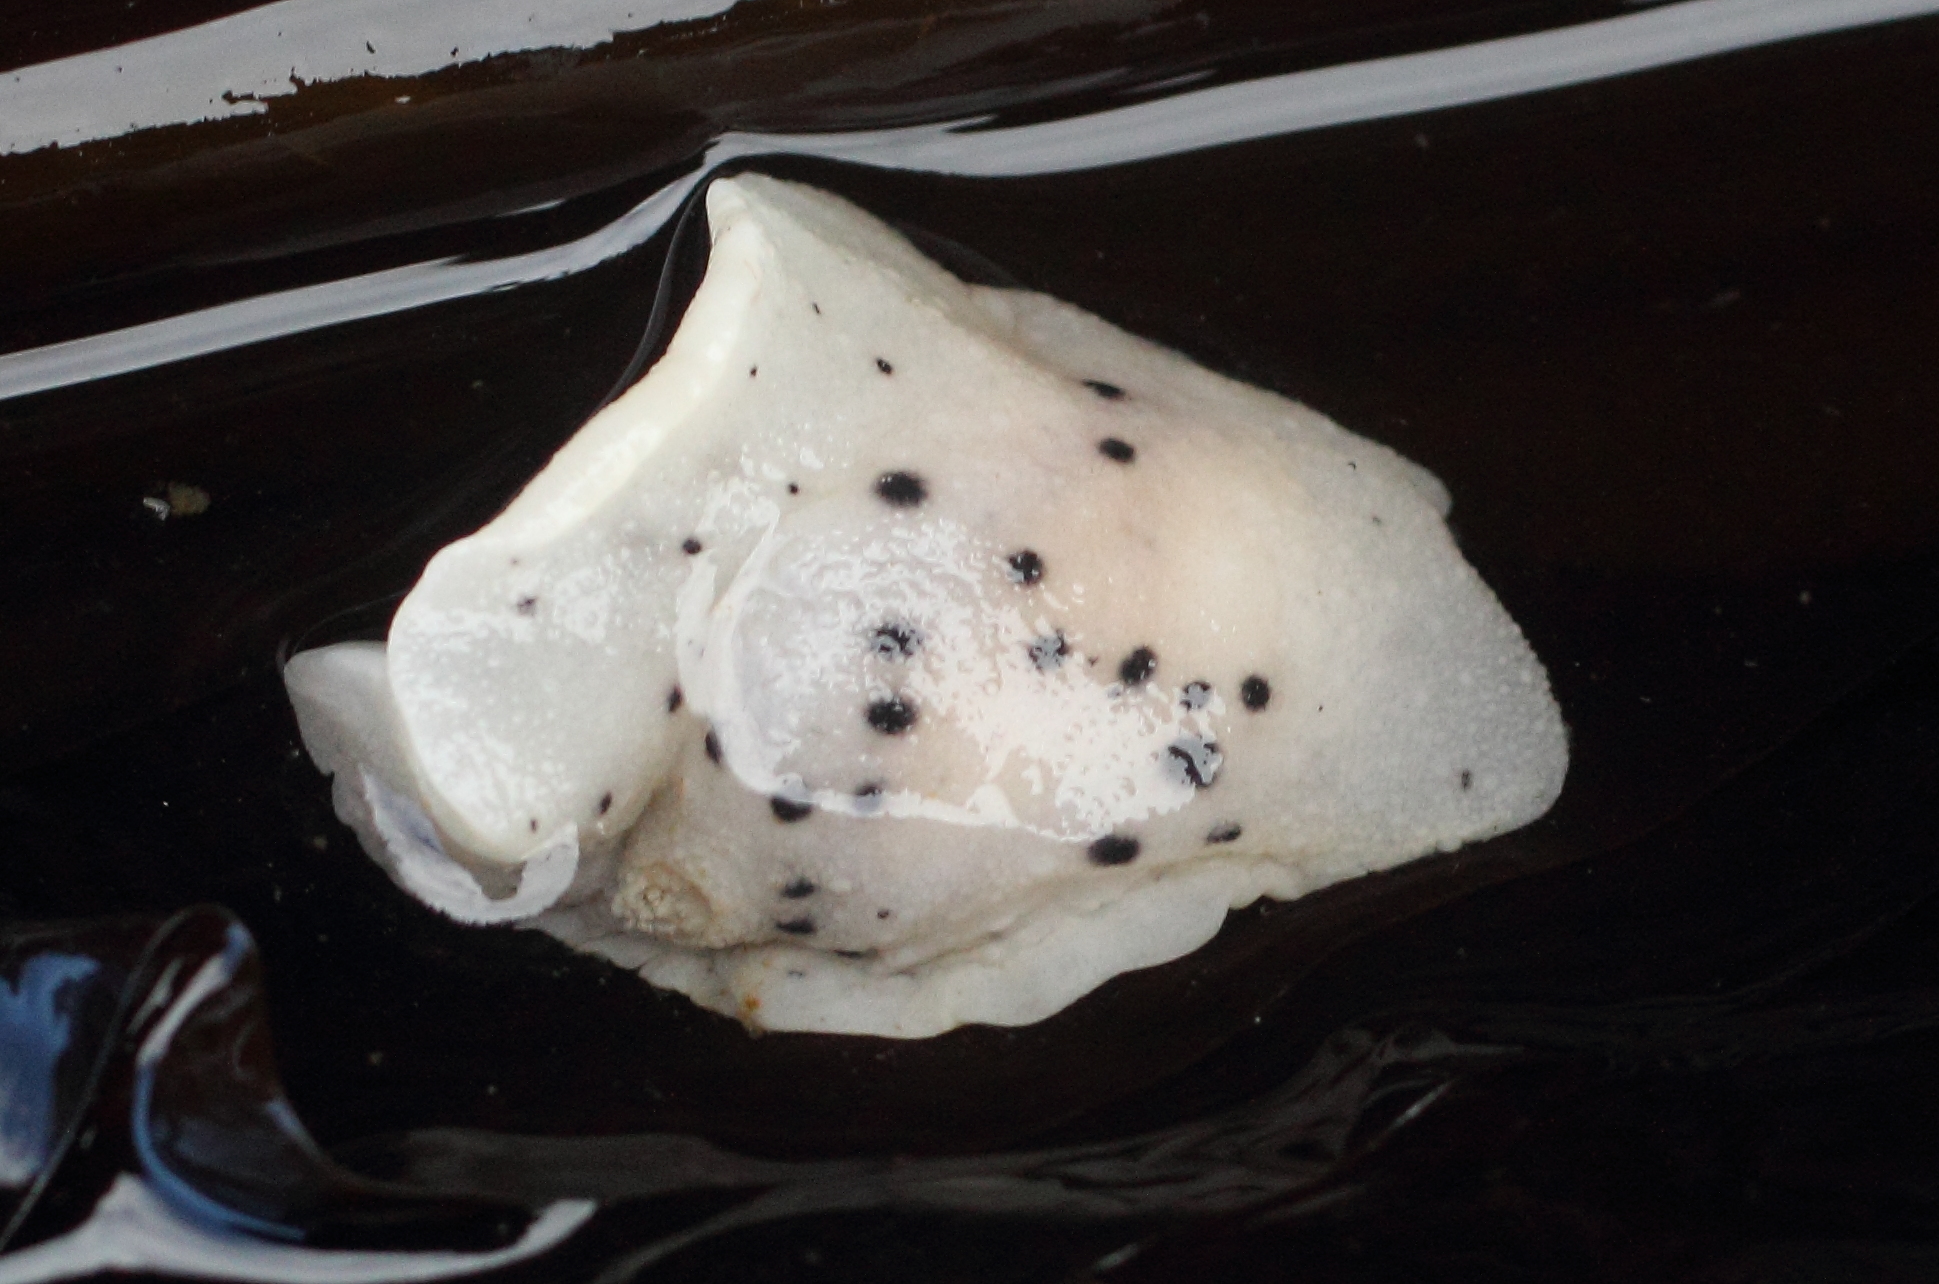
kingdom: Animalia
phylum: Mollusca
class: Gastropoda
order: Nudibranchia
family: Discodorididae
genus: Diaulula
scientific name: Diaulula odonoghuei
